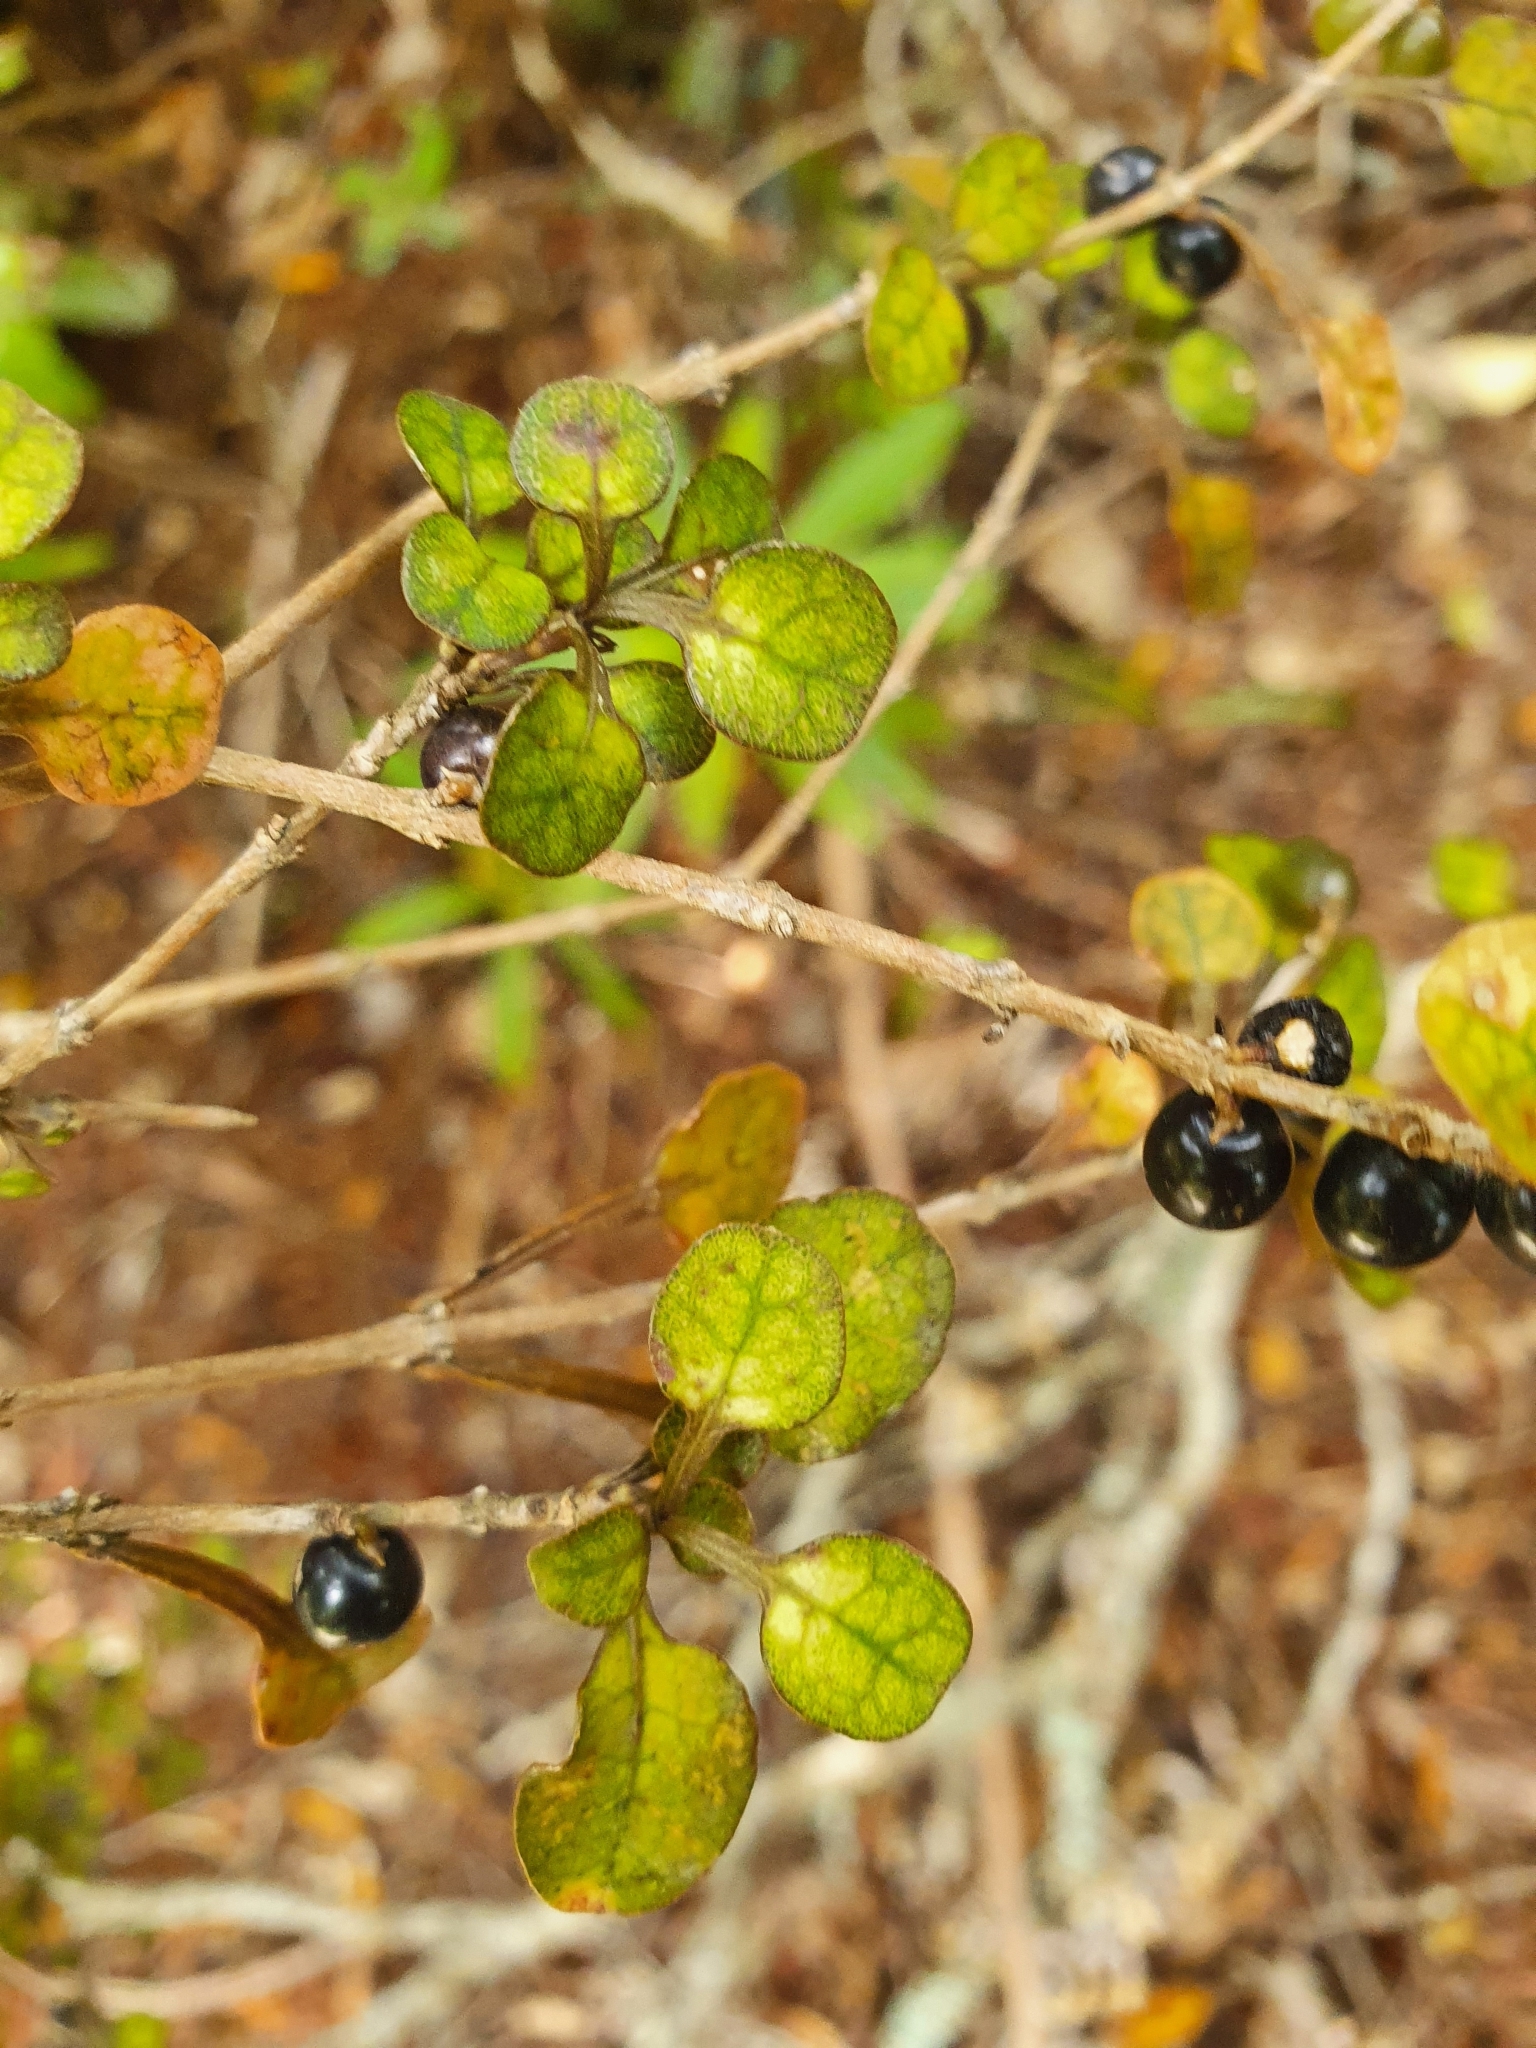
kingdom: Plantae
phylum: Tracheophyta
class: Magnoliopsida
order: Gentianales
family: Rubiaceae
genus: Coprosma
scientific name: Coprosma spathulata
